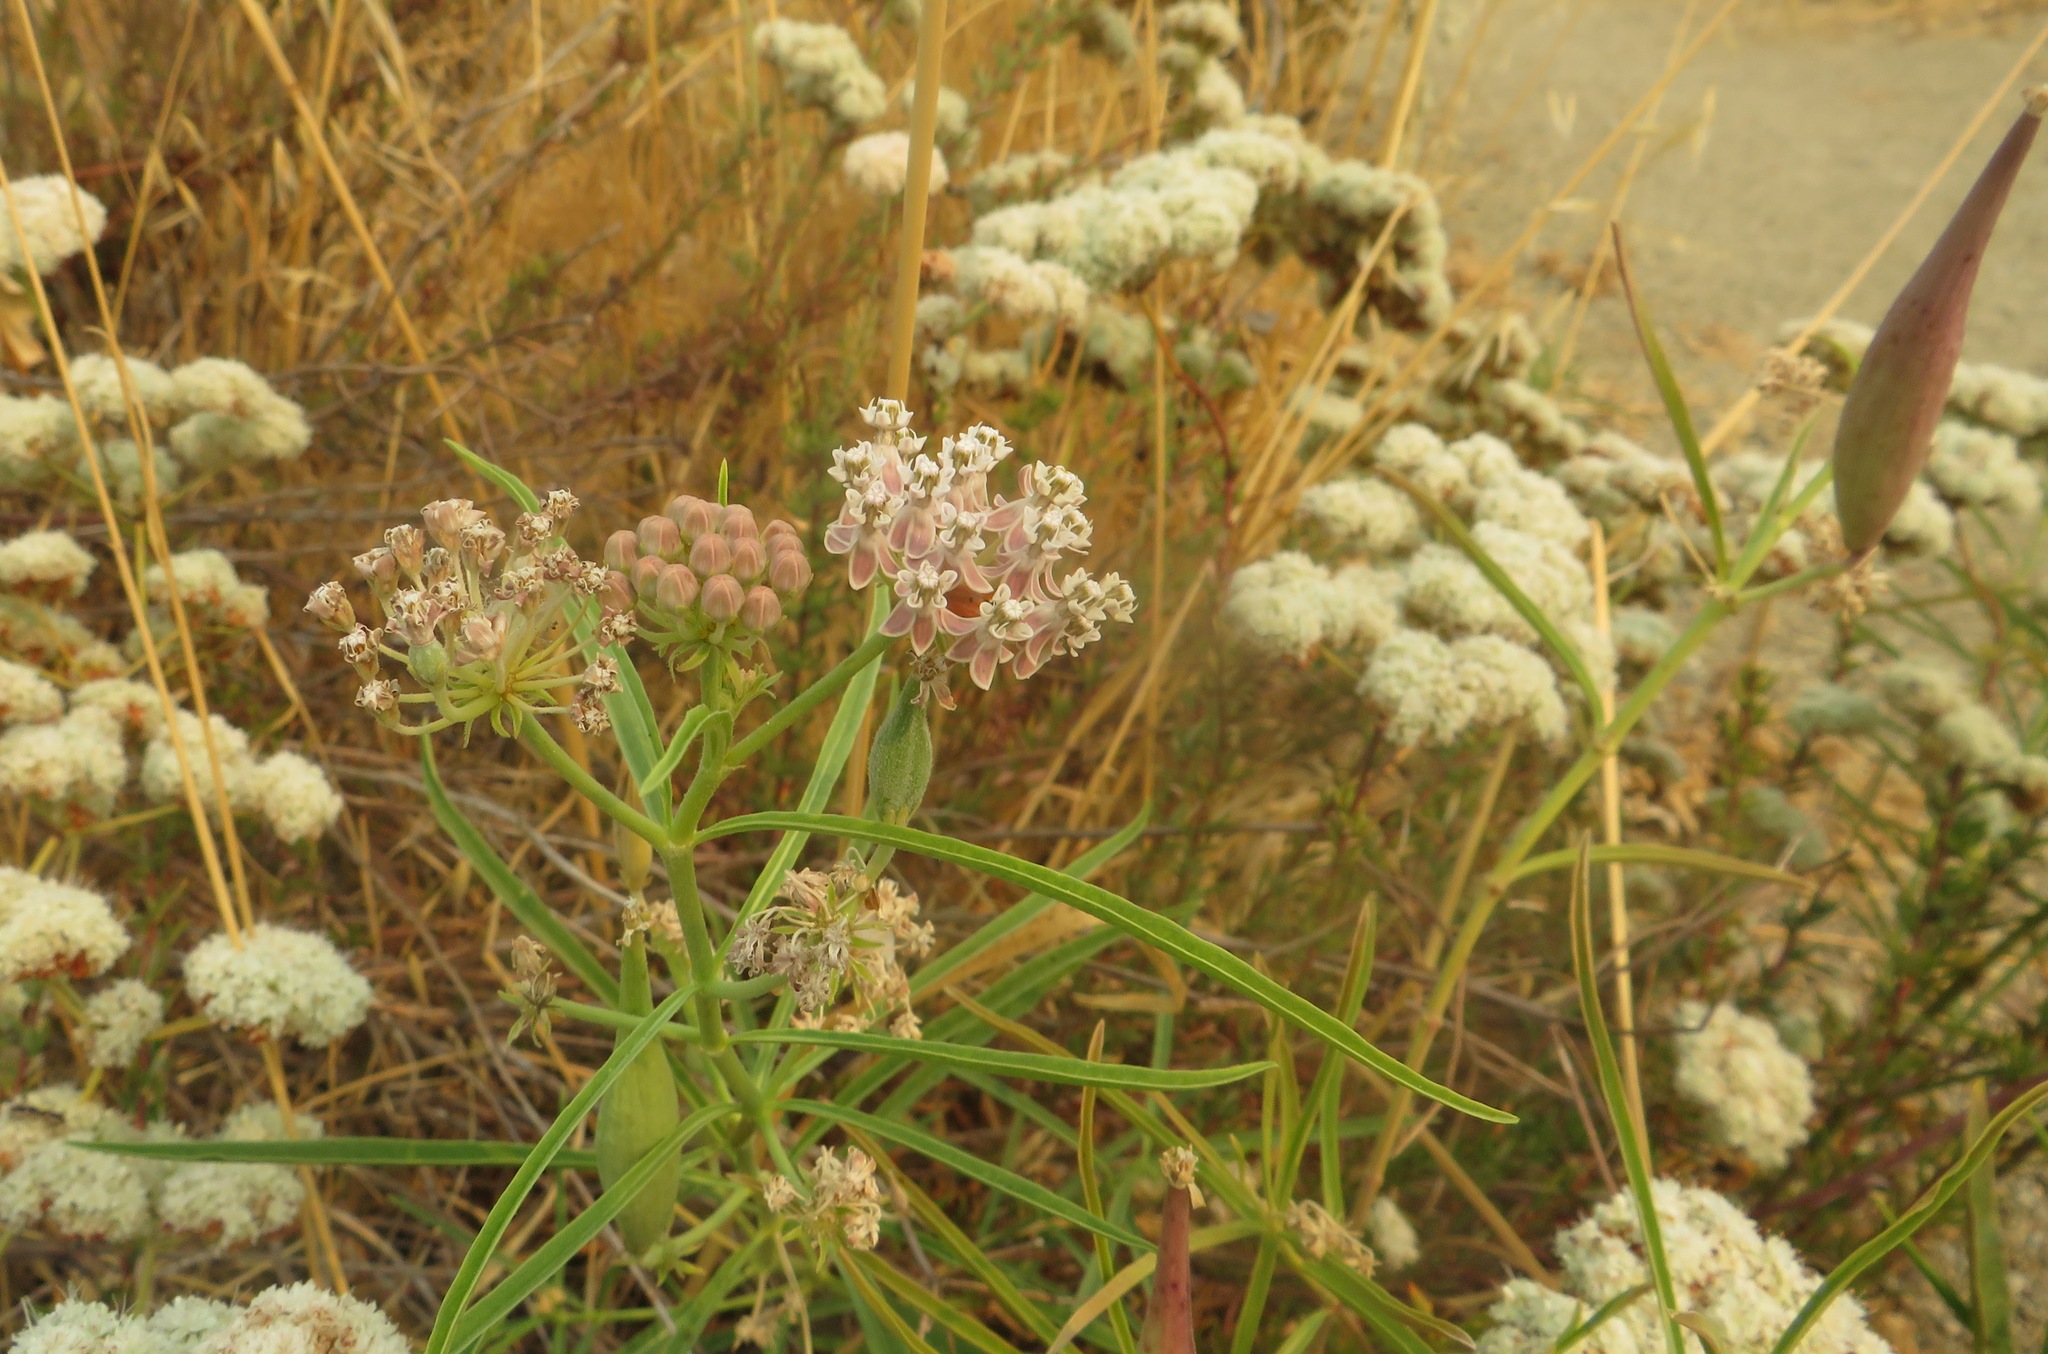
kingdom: Plantae
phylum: Tracheophyta
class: Magnoliopsida
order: Gentianales
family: Apocynaceae
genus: Asclepias
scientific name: Asclepias fascicularis
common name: Mexican milkweed
